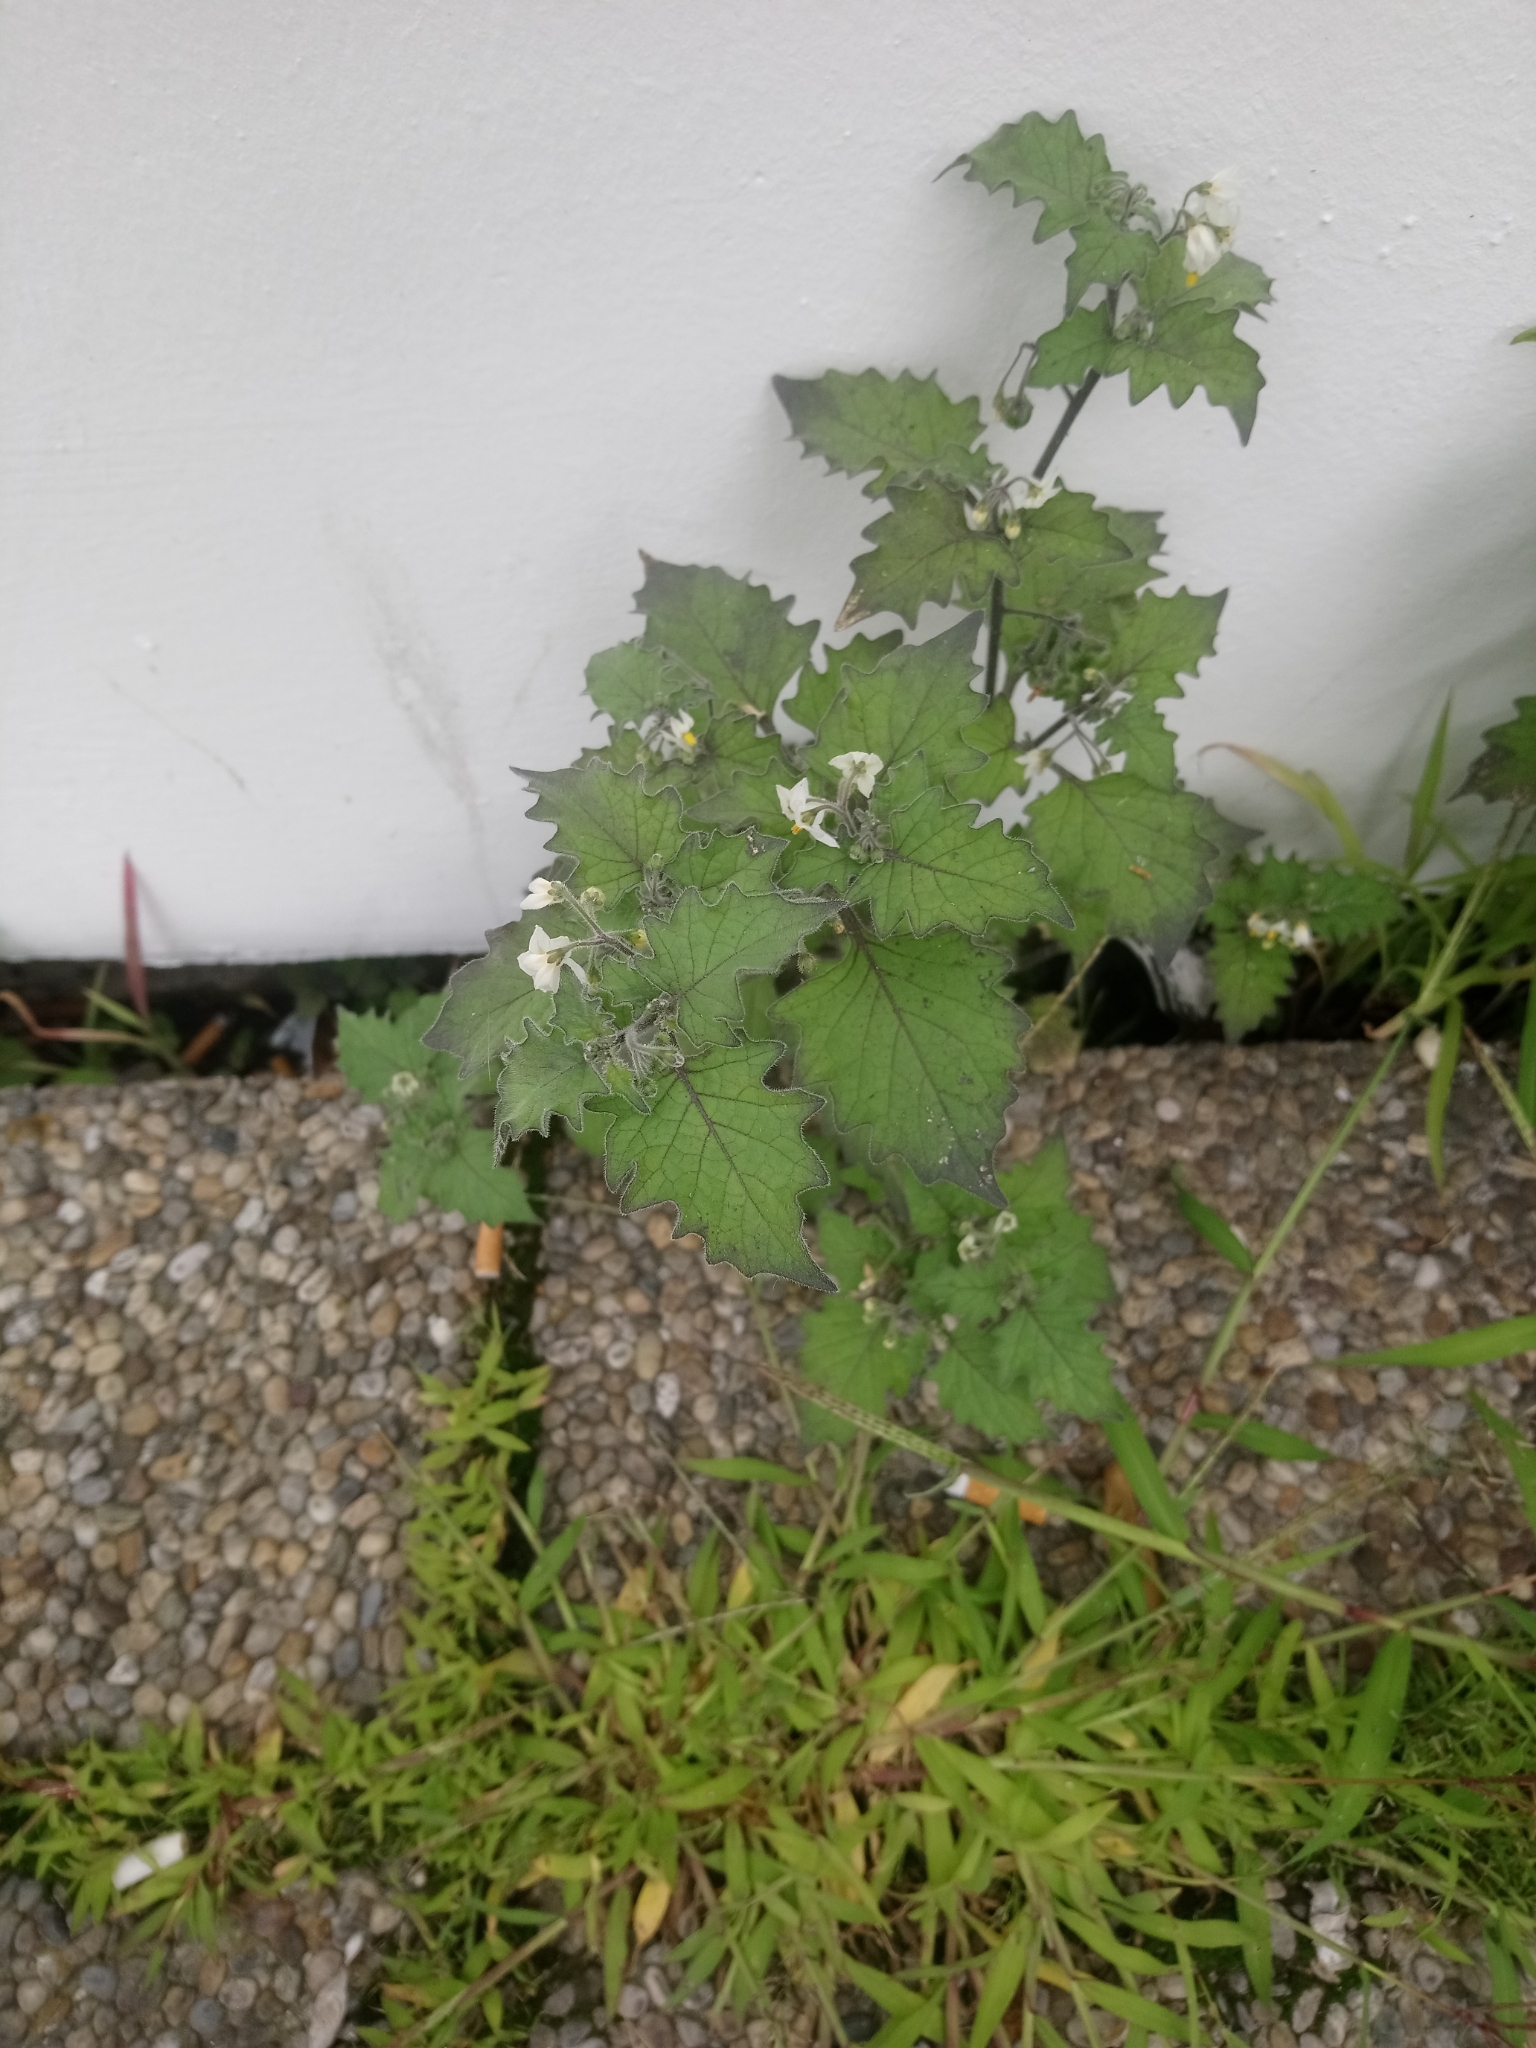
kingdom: Plantae
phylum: Tracheophyta
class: Magnoliopsida
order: Solanales
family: Solanaceae
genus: Solanum
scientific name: Solanum nigrum
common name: Black nightshade
